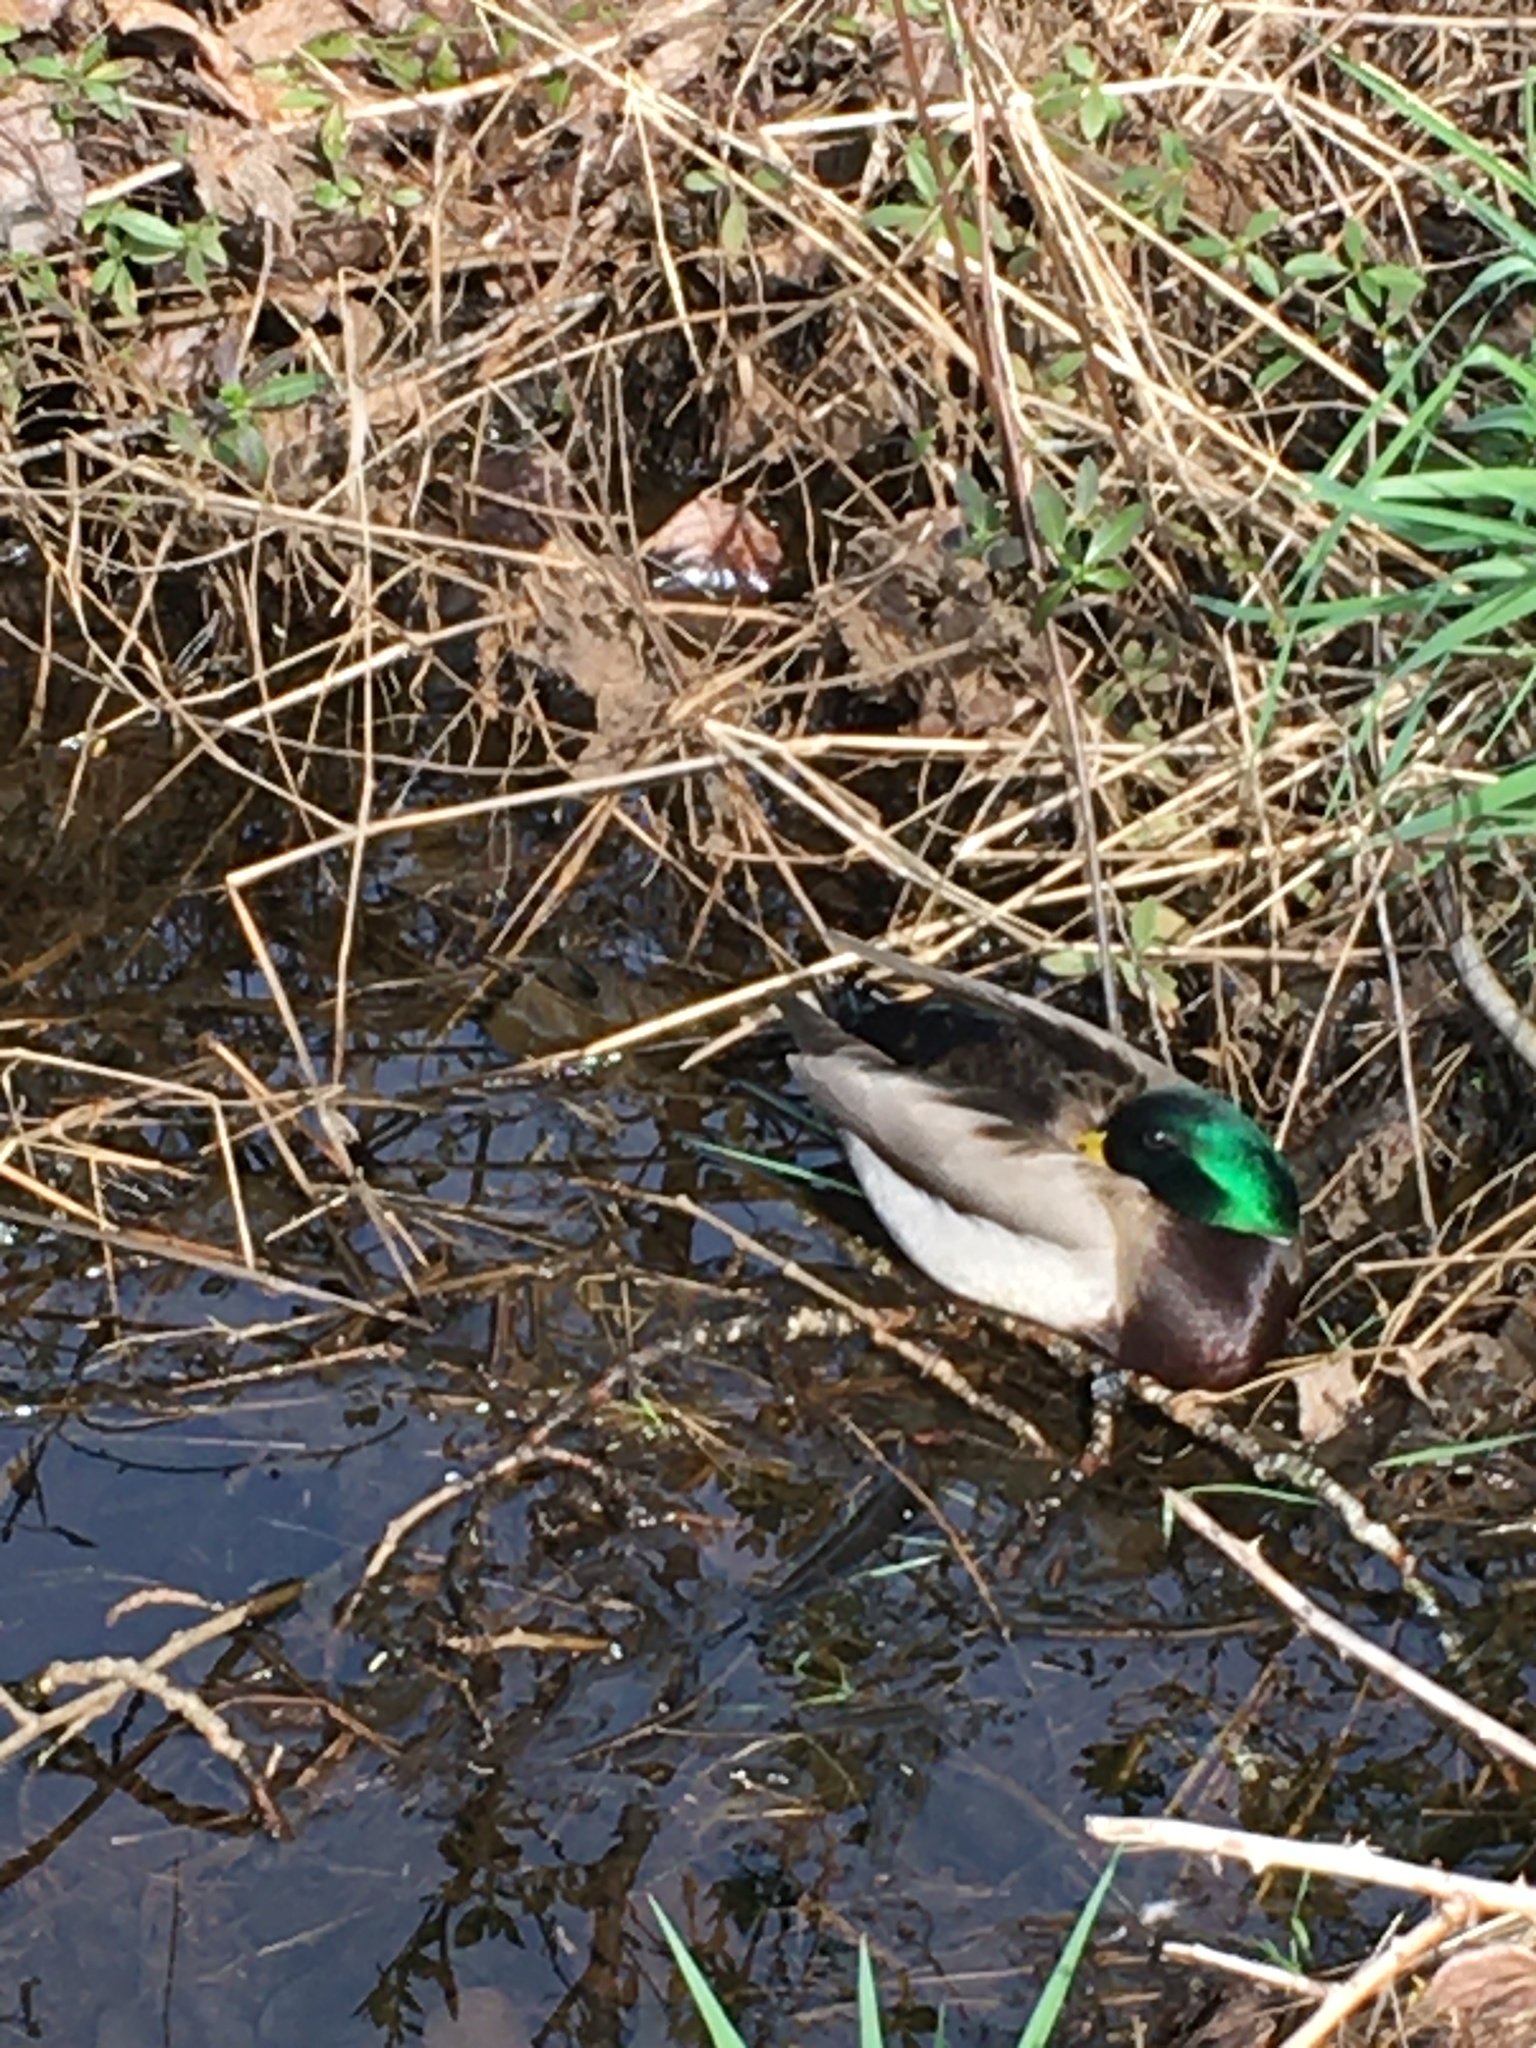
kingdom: Animalia
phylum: Chordata
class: Aves
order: Anseriformes
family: Anatidae
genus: Anas
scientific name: Anas platyrhynchos
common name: Mallard
